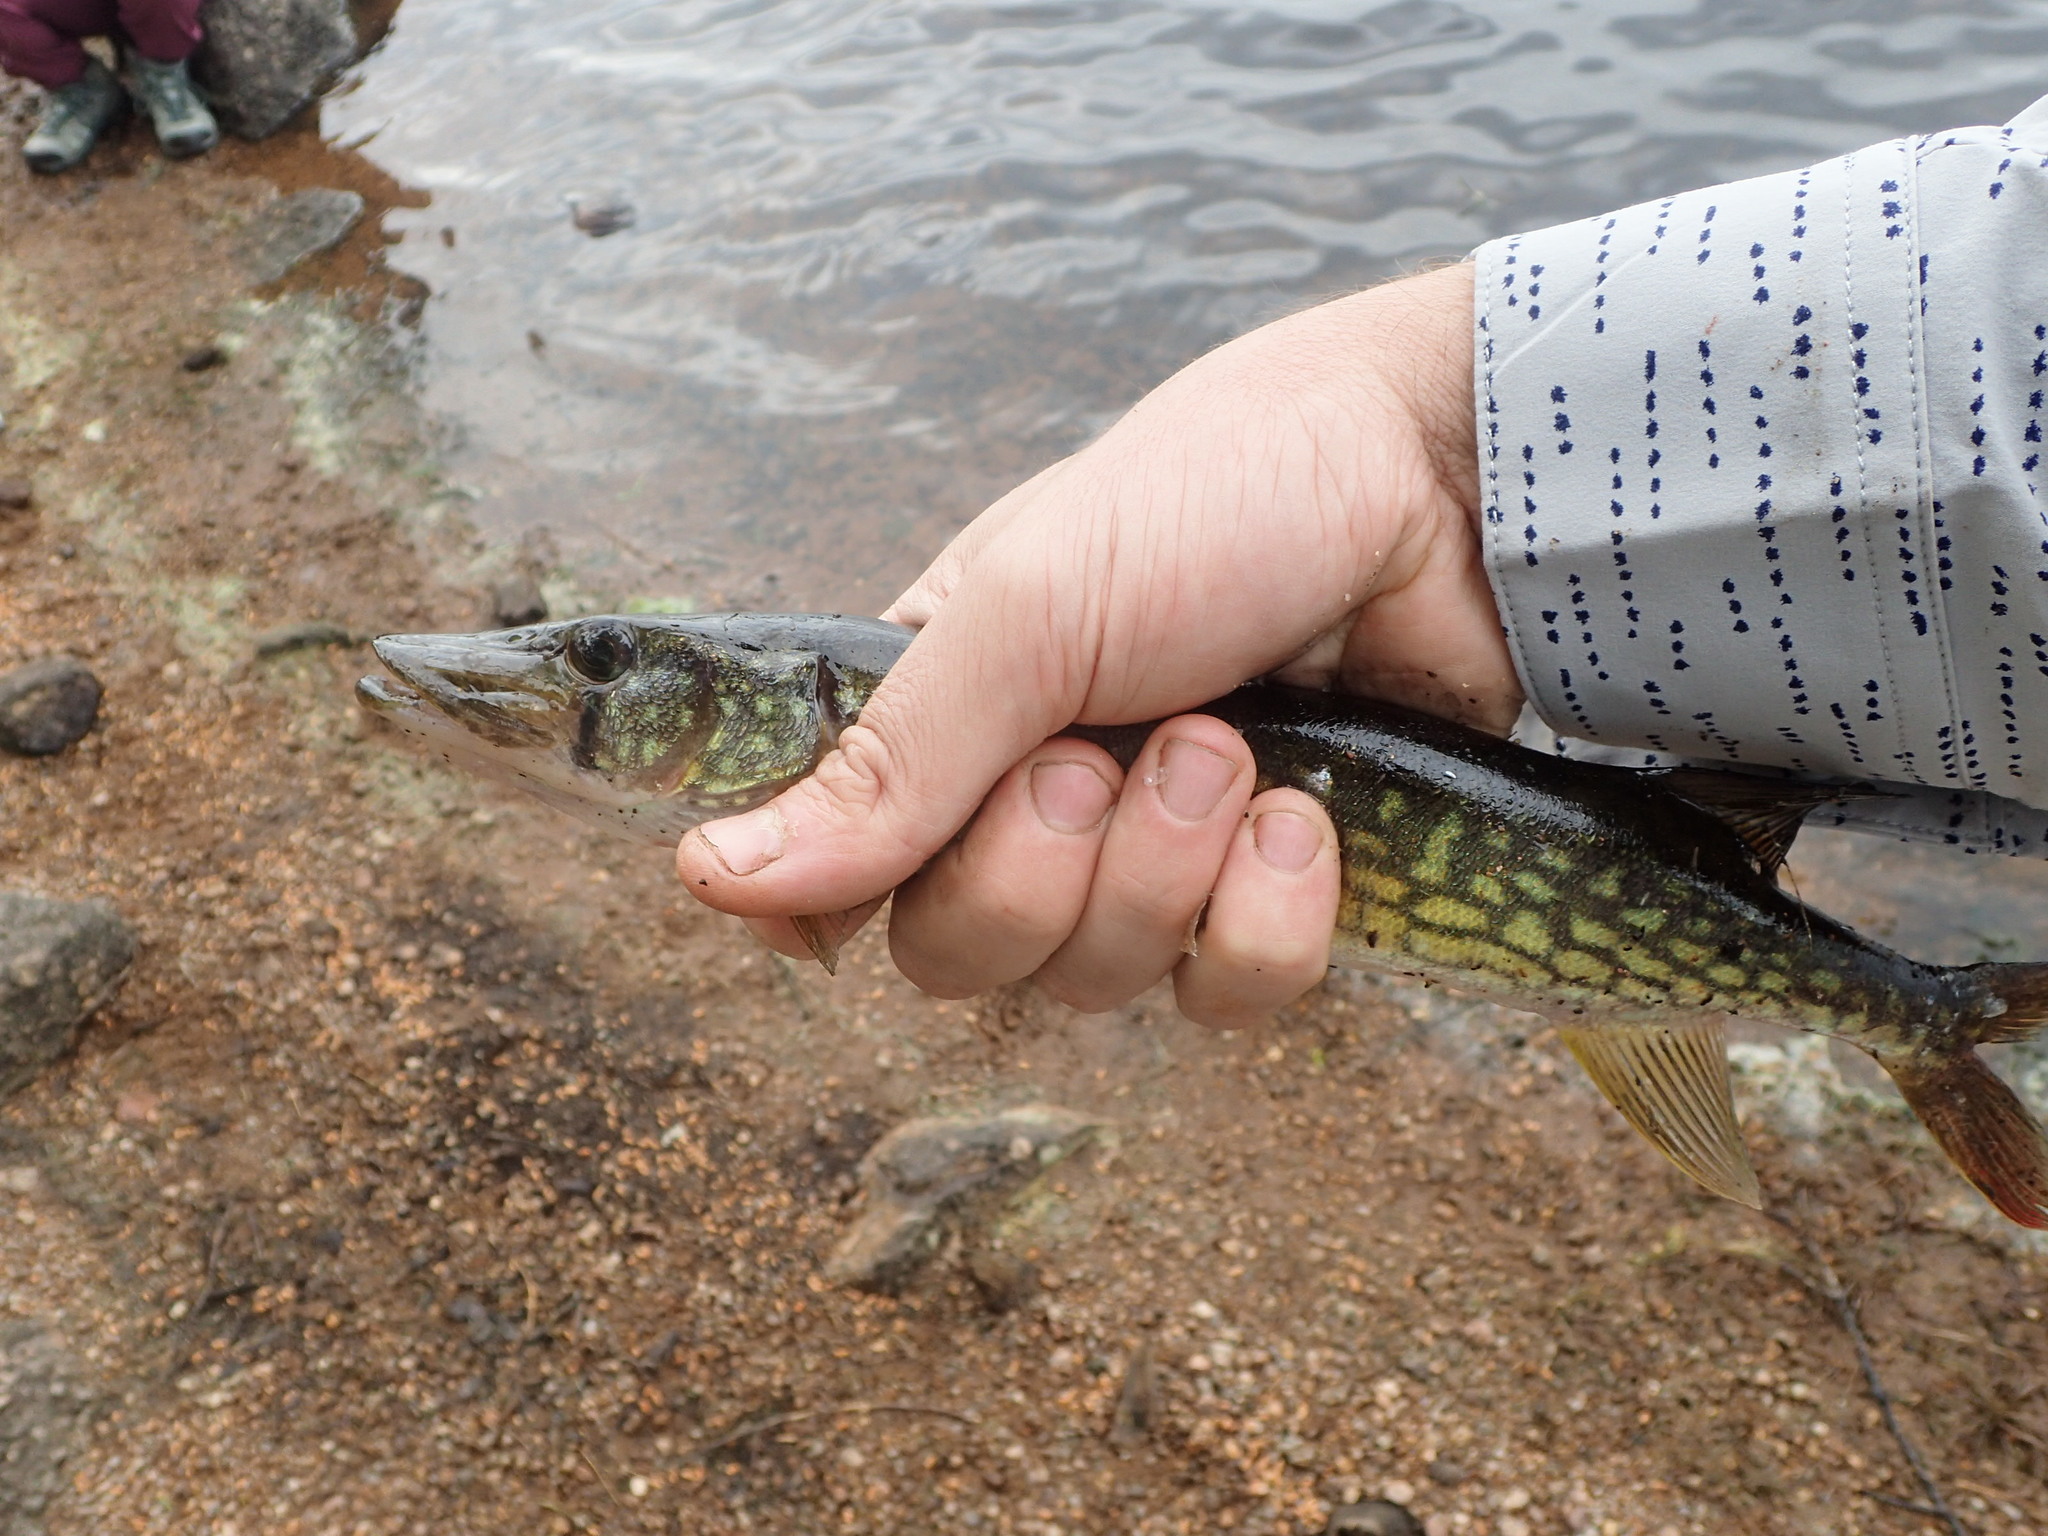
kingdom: Animalia
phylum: Chordata
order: Esociformes
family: Esocidae
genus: Esox
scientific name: Esox niger
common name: Chain pickerel
